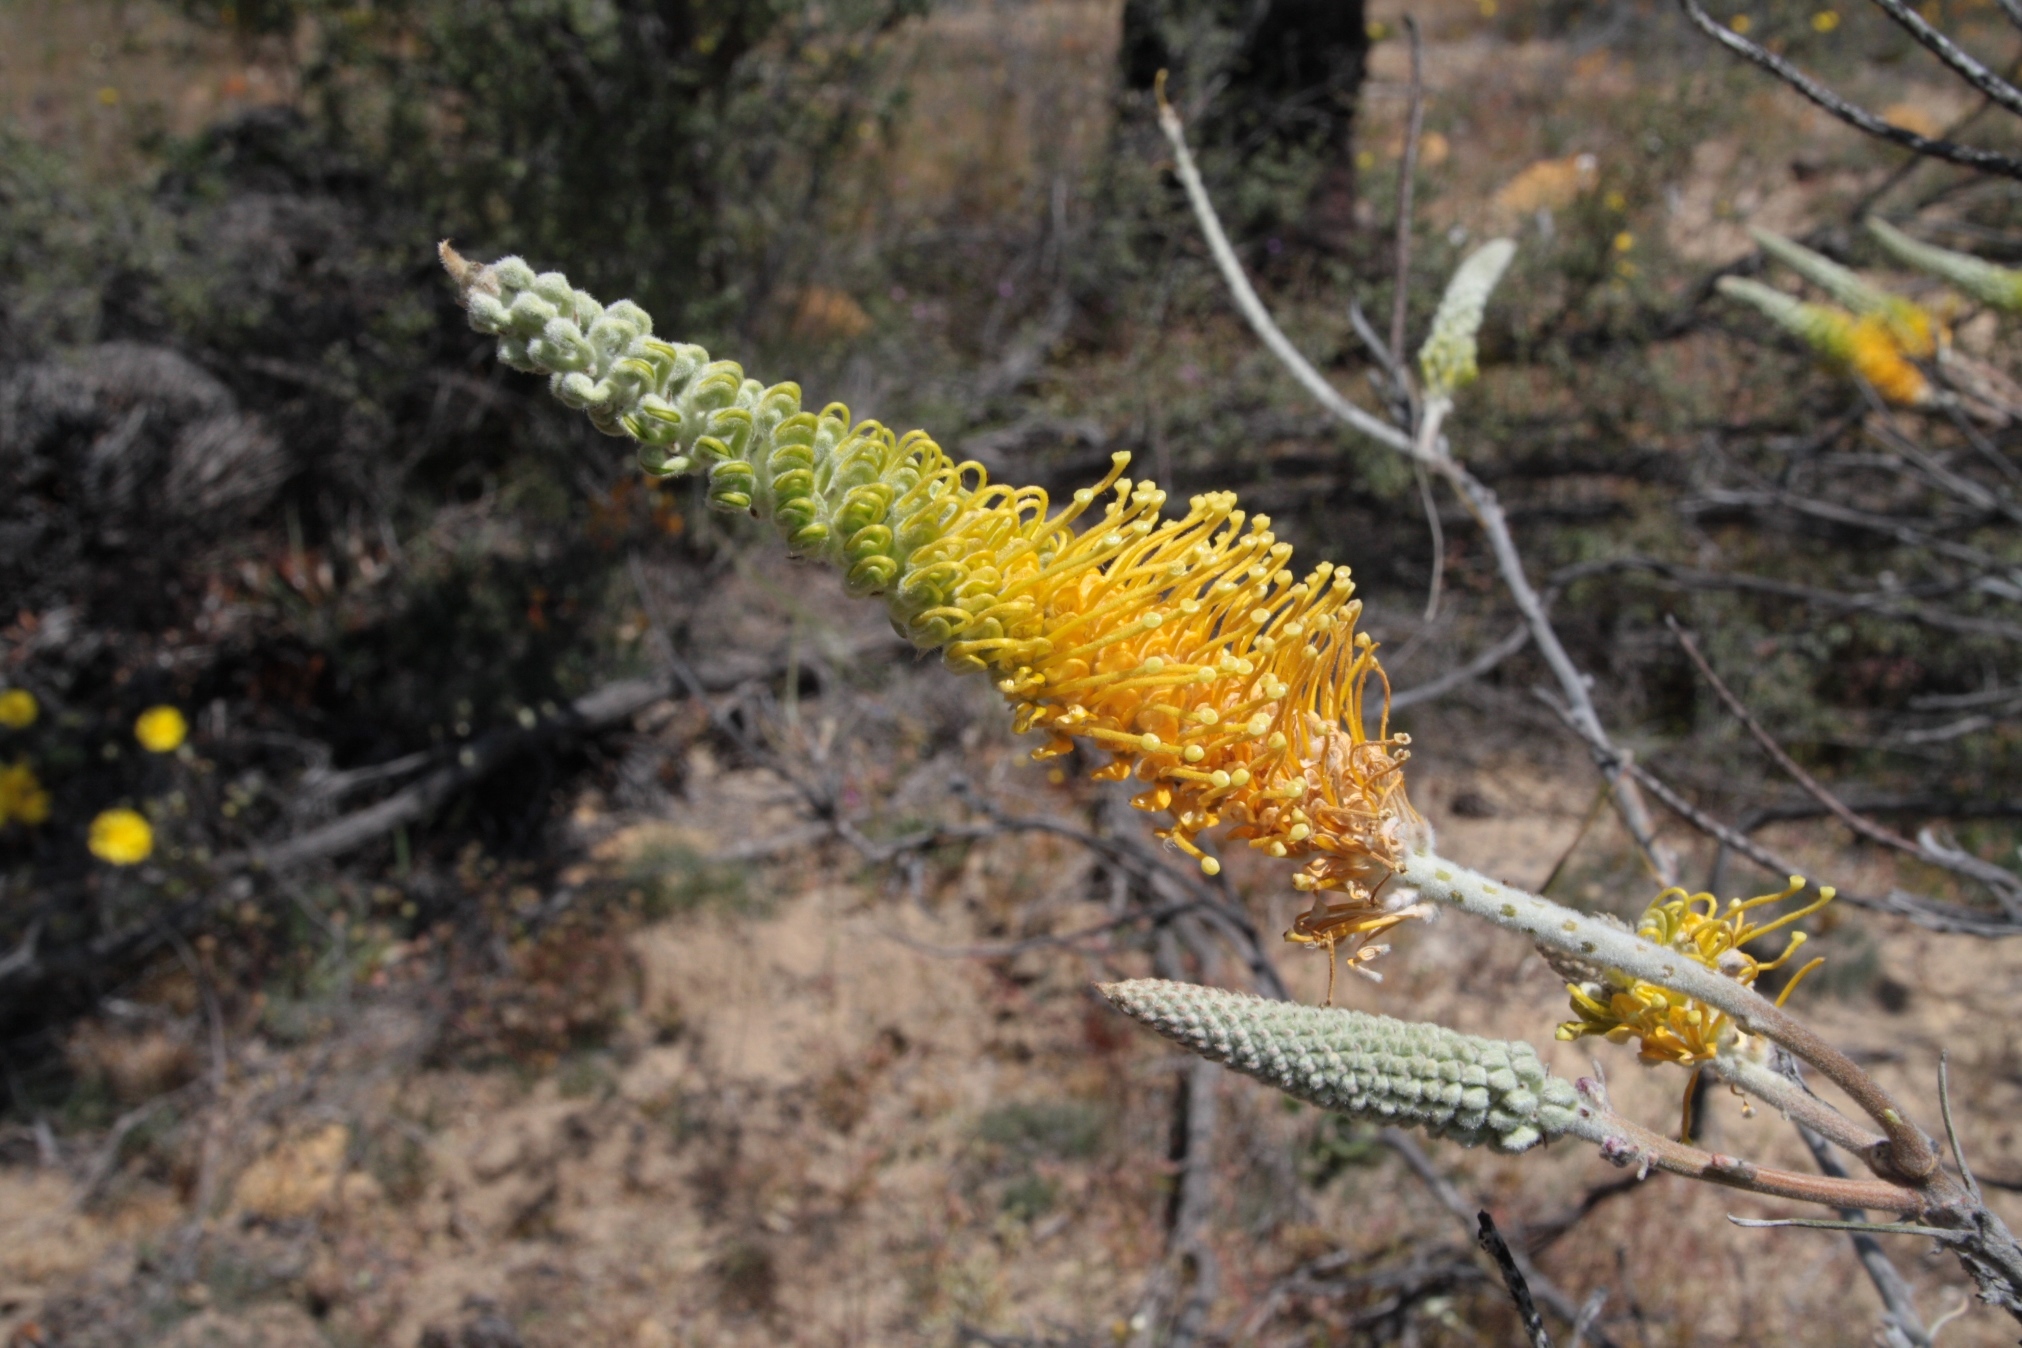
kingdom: Plantae
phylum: Tracheophyta
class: Magnoliopsida
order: Proteales
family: Proteaceae
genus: Grevillea
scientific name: Grevillea excelsior
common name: Orange flame grevillea
